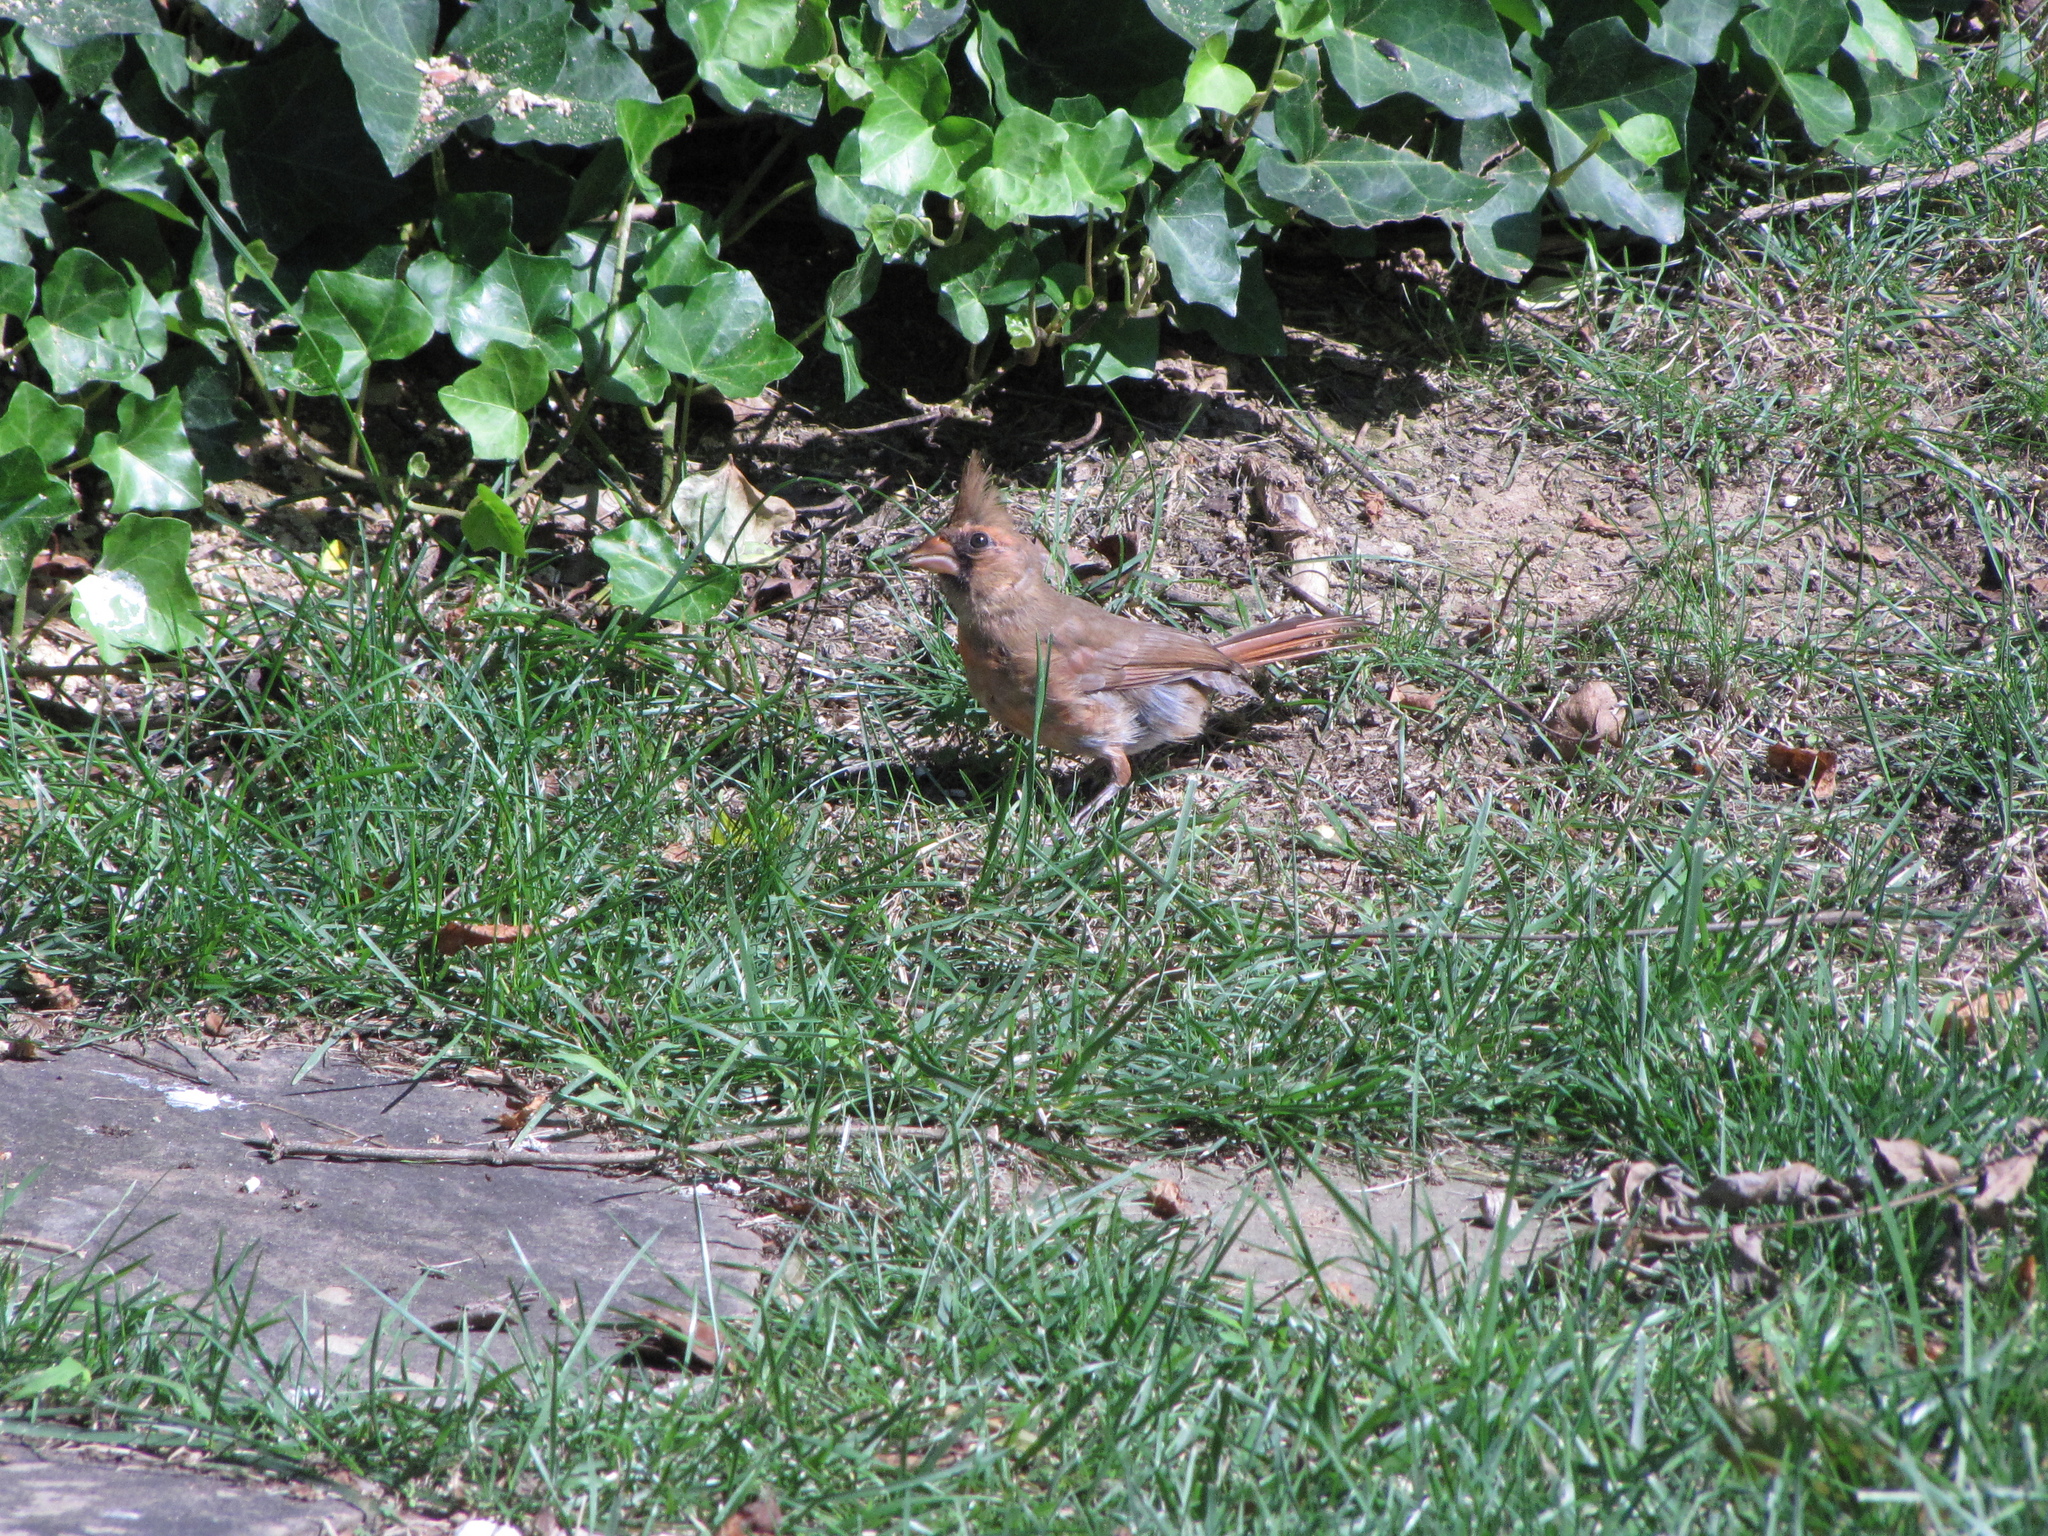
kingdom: Animalia
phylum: Chordata
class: Aves
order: Passeriformes
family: Cardinalidae
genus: Cardinalis
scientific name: Cardinalis cardinalis
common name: Northern cardinal
